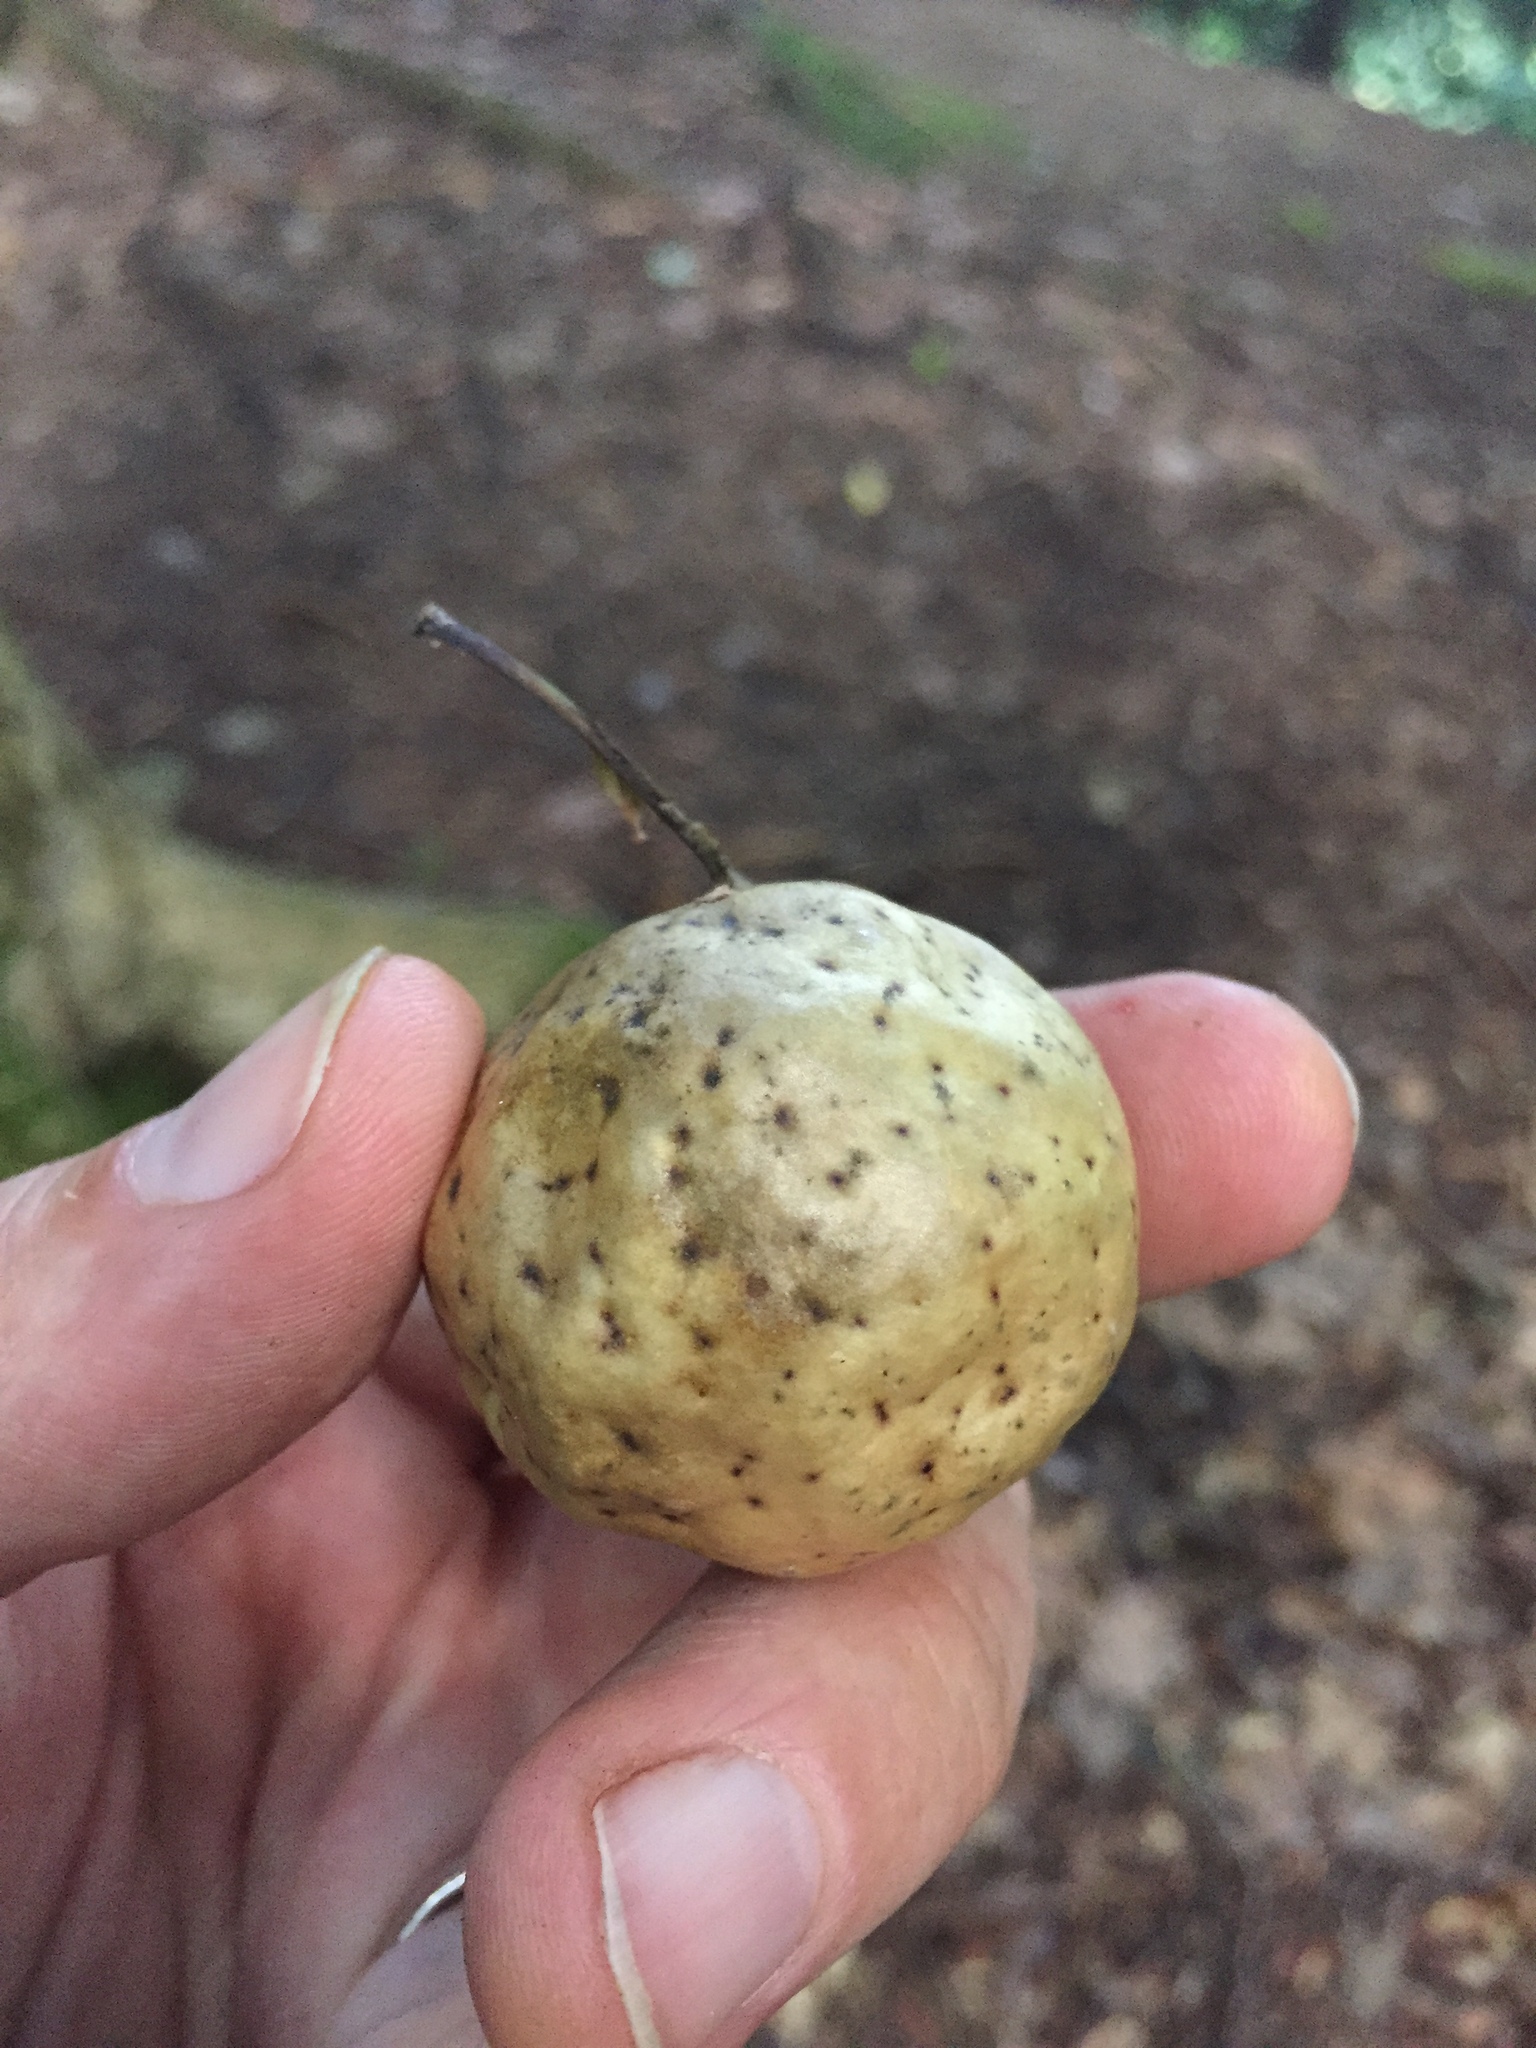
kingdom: Animalia
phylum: Arthropoda
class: Insecta
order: Hymenoptera
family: Cynipidae
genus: Amphibolips
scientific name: Amphibolips
